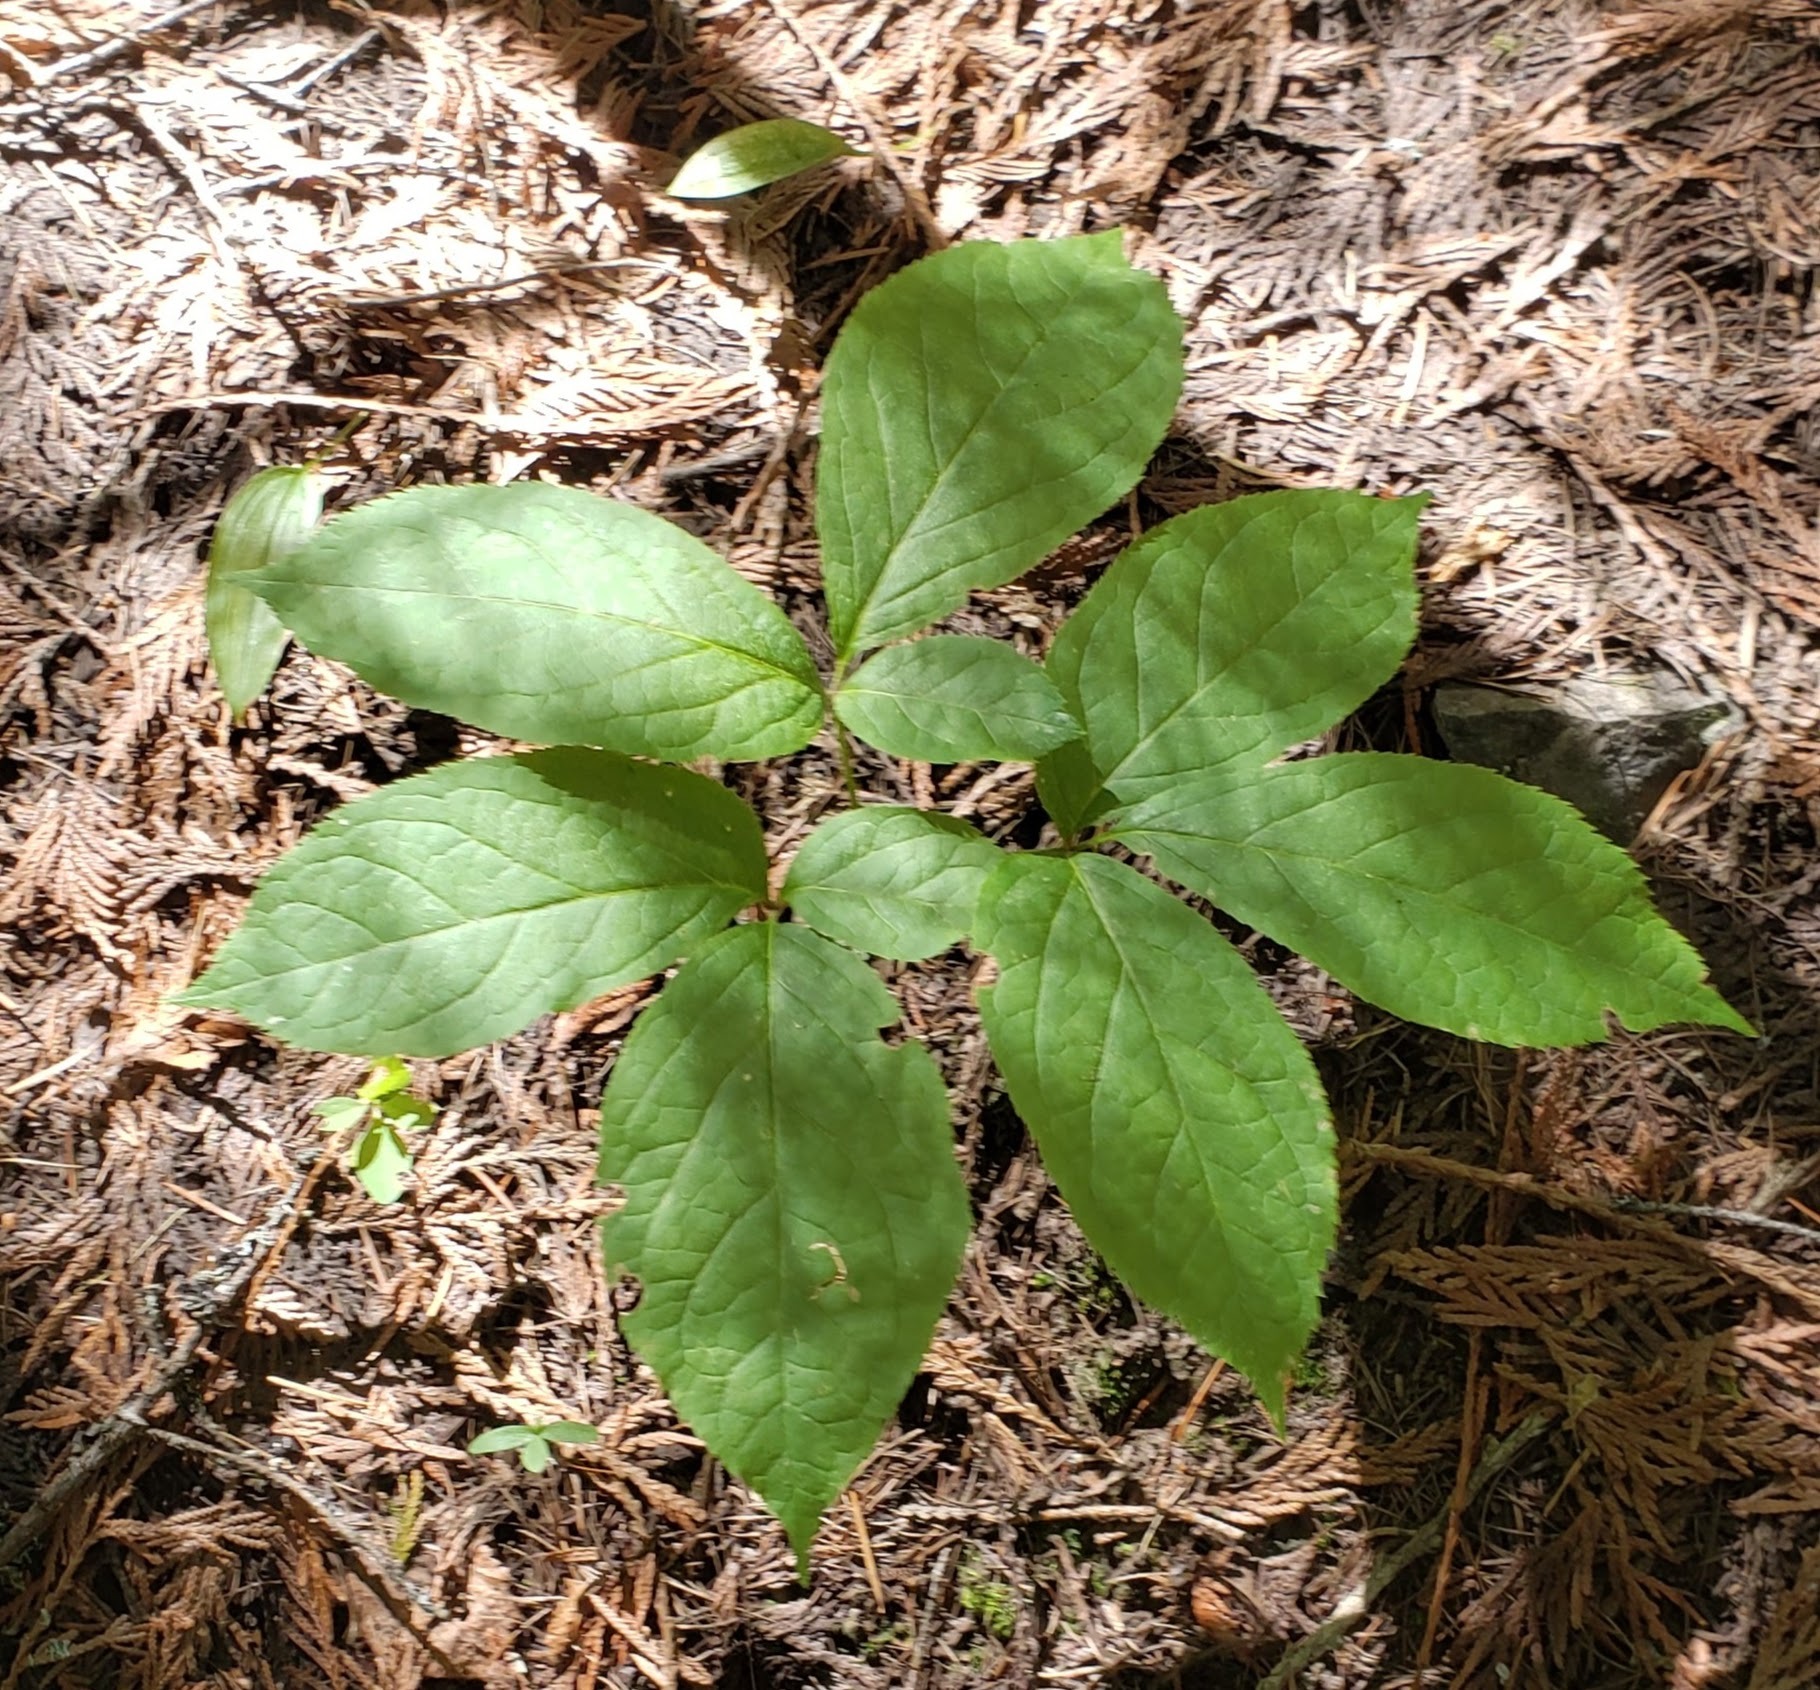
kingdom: Plantae
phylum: Tracheophyta
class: Magnoliopsida
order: Apiales
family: Araliaceae
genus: Aralia
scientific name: Aralia nudicaulis
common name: Wild sarsaparilla
